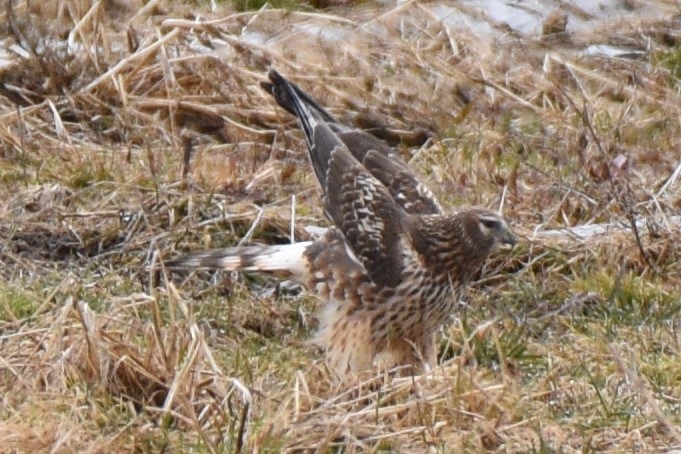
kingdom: Animalia
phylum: Chordata
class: Aves
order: Accipitriformes
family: Accipitridae
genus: Circus
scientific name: Circus cyaneus
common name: Hen harrier
